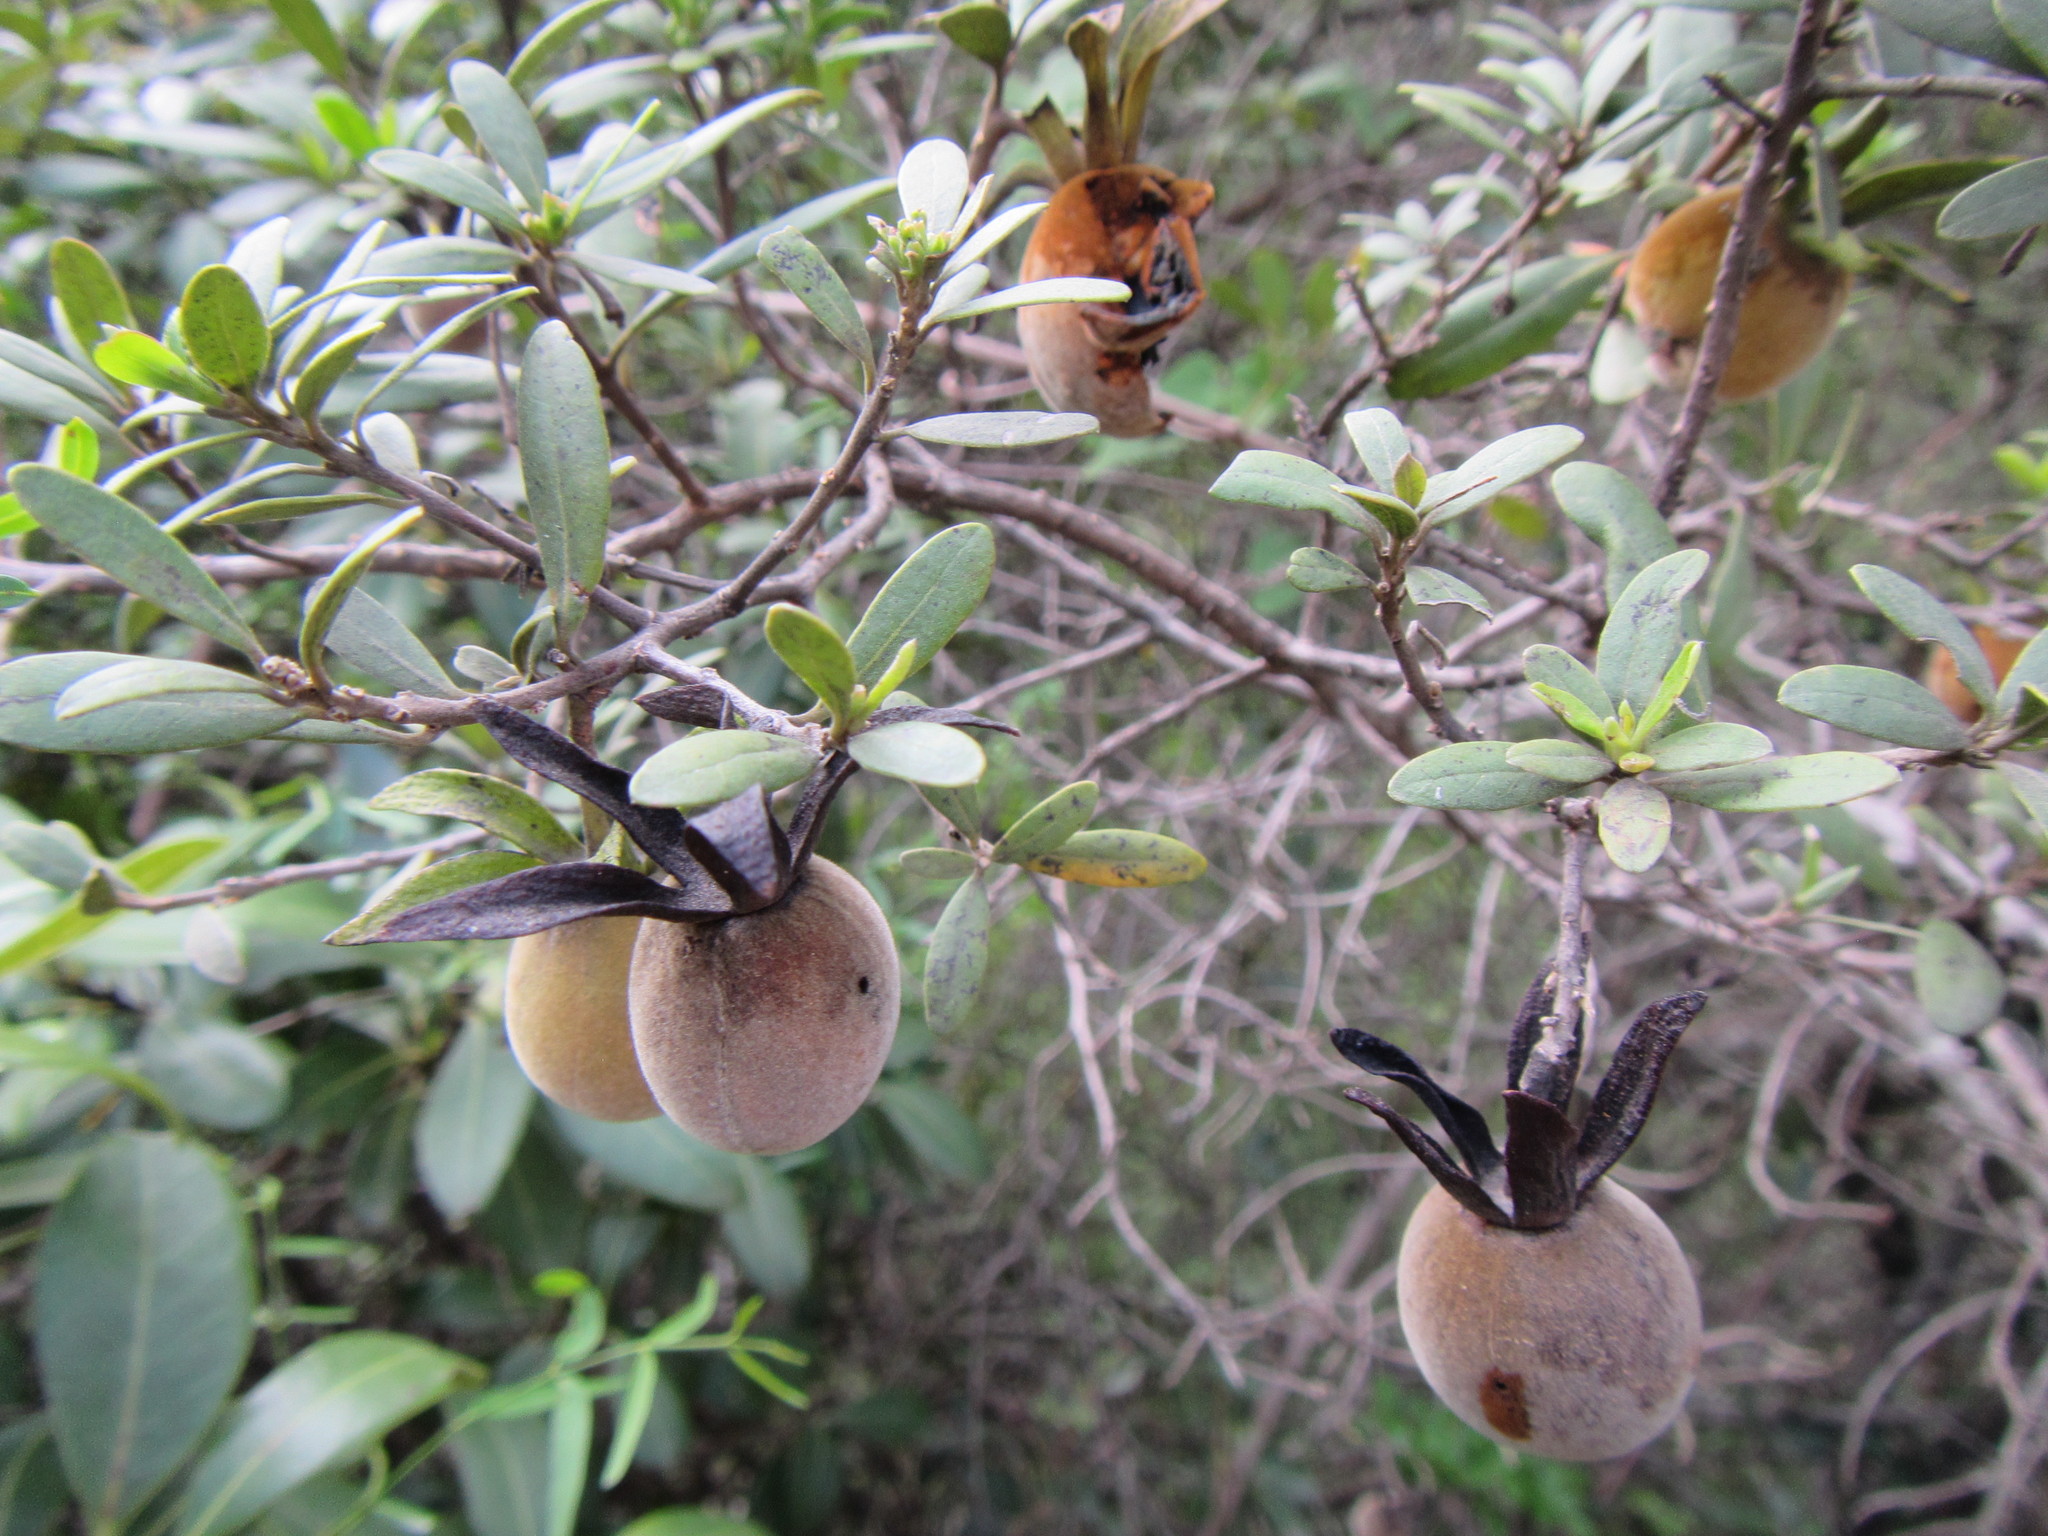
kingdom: Plantae
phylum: Tracheophyta
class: Magnoliopsida
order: Ericales
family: Ebenaceae
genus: Diospyros
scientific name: Diospyros dichrophylla
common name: Common star-apple
